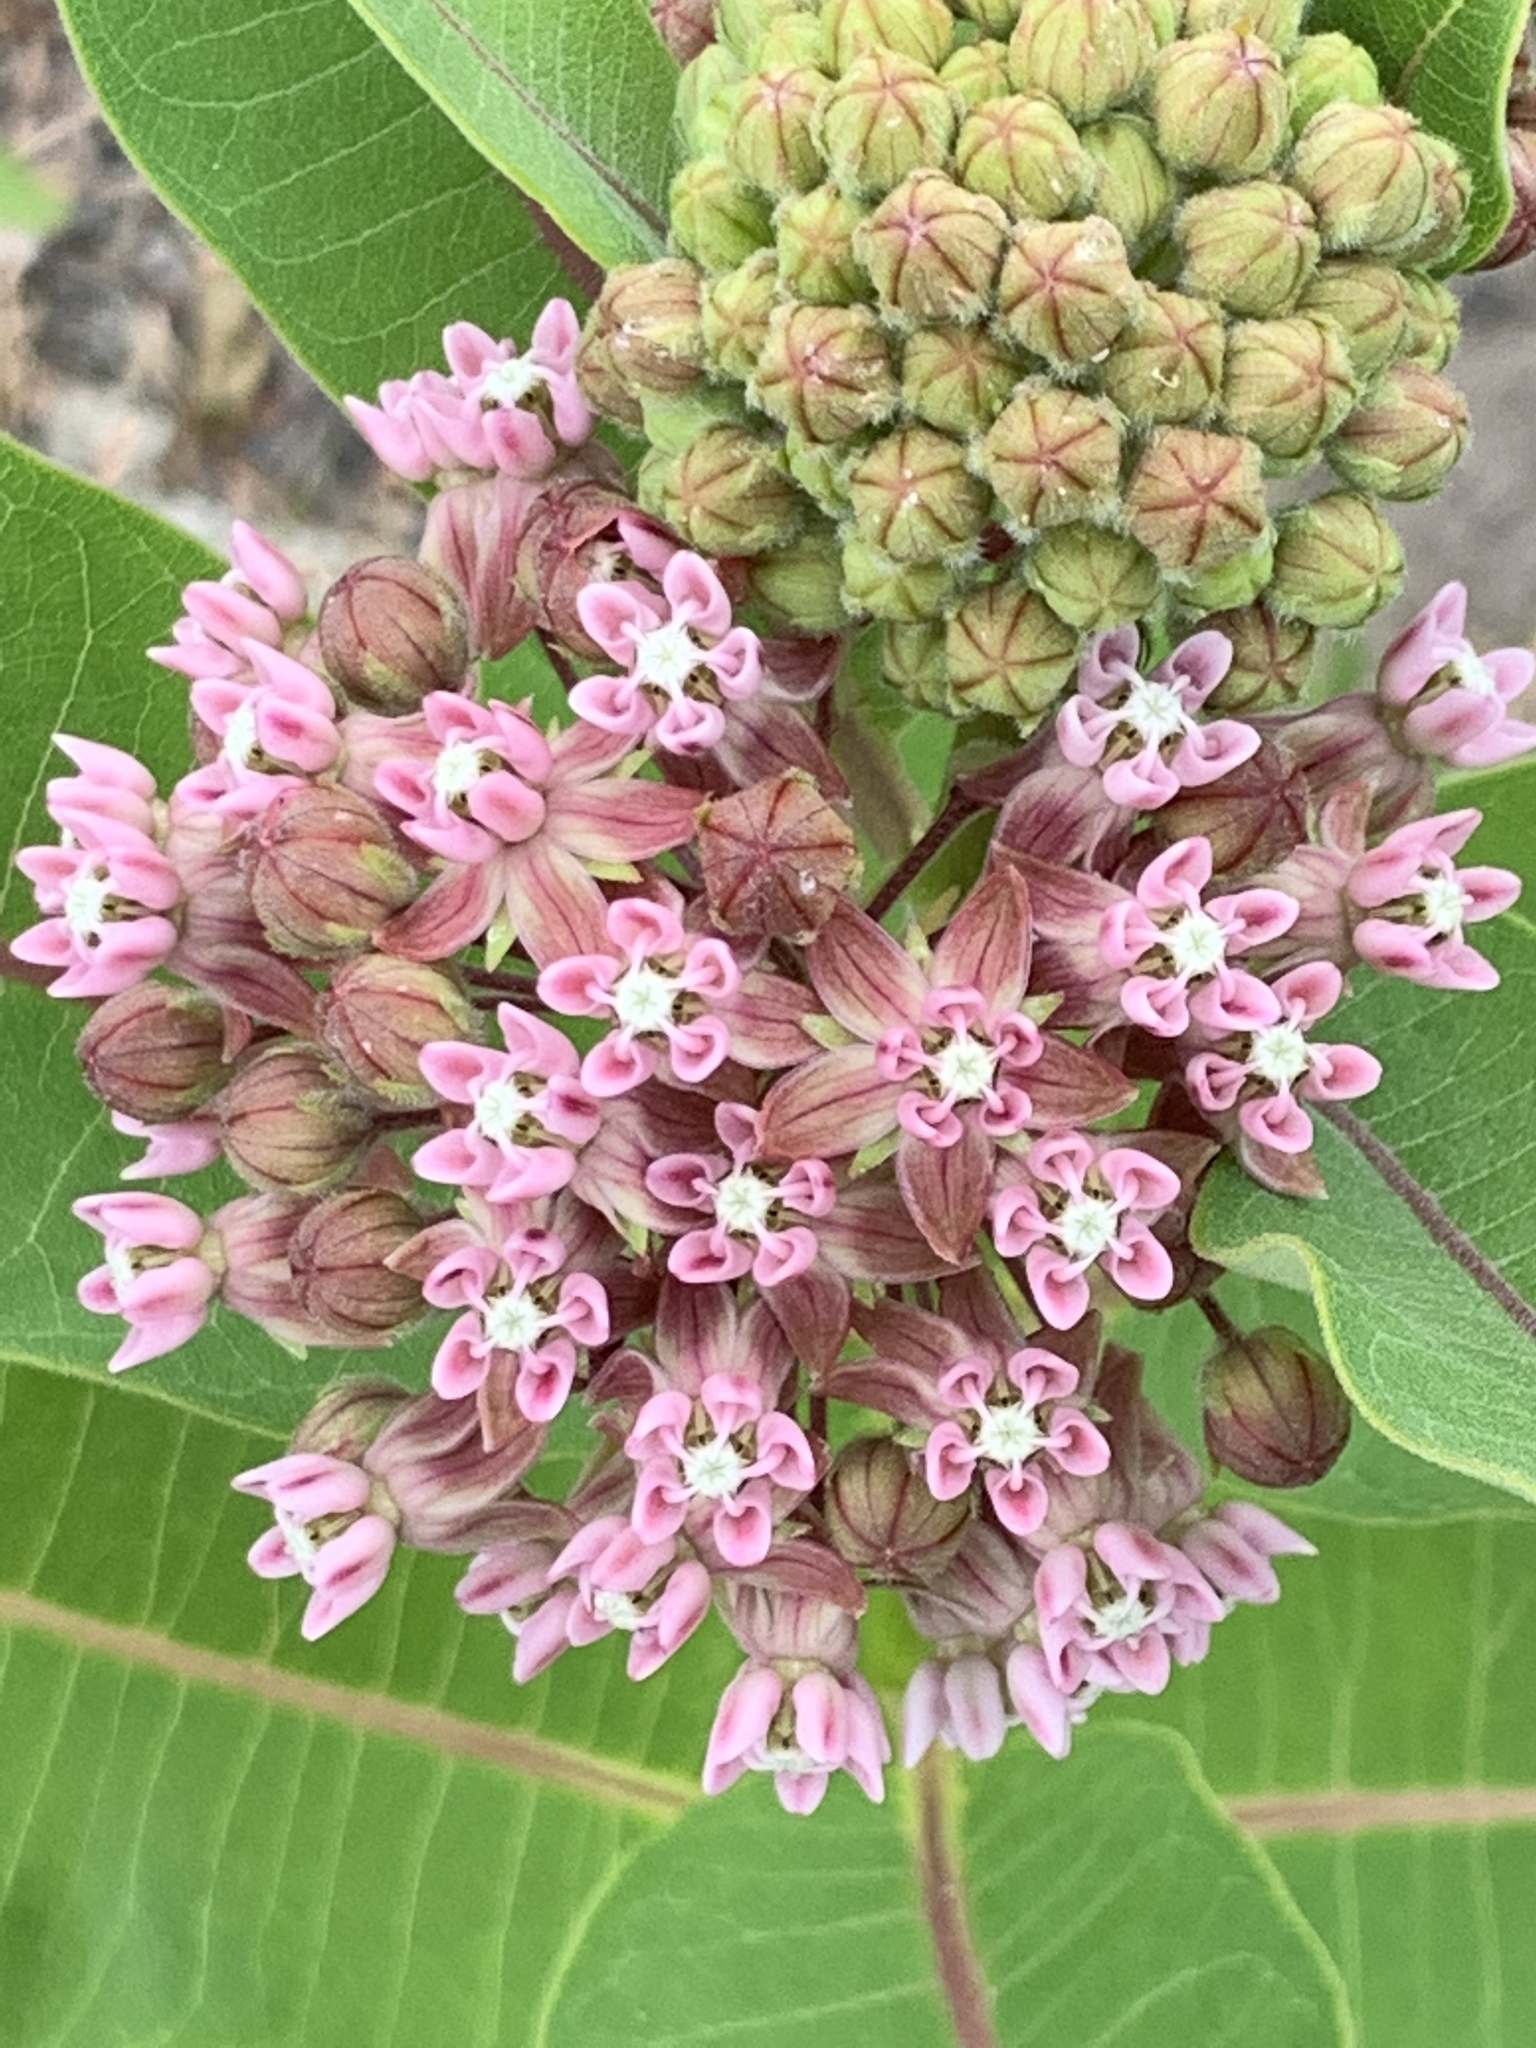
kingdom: Plantae
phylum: Tracheophyta
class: Magnoliopsida
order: Gentianales
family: Apocynaceae
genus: Asclepias
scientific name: Asclepias syriaca
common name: Common milkweed
